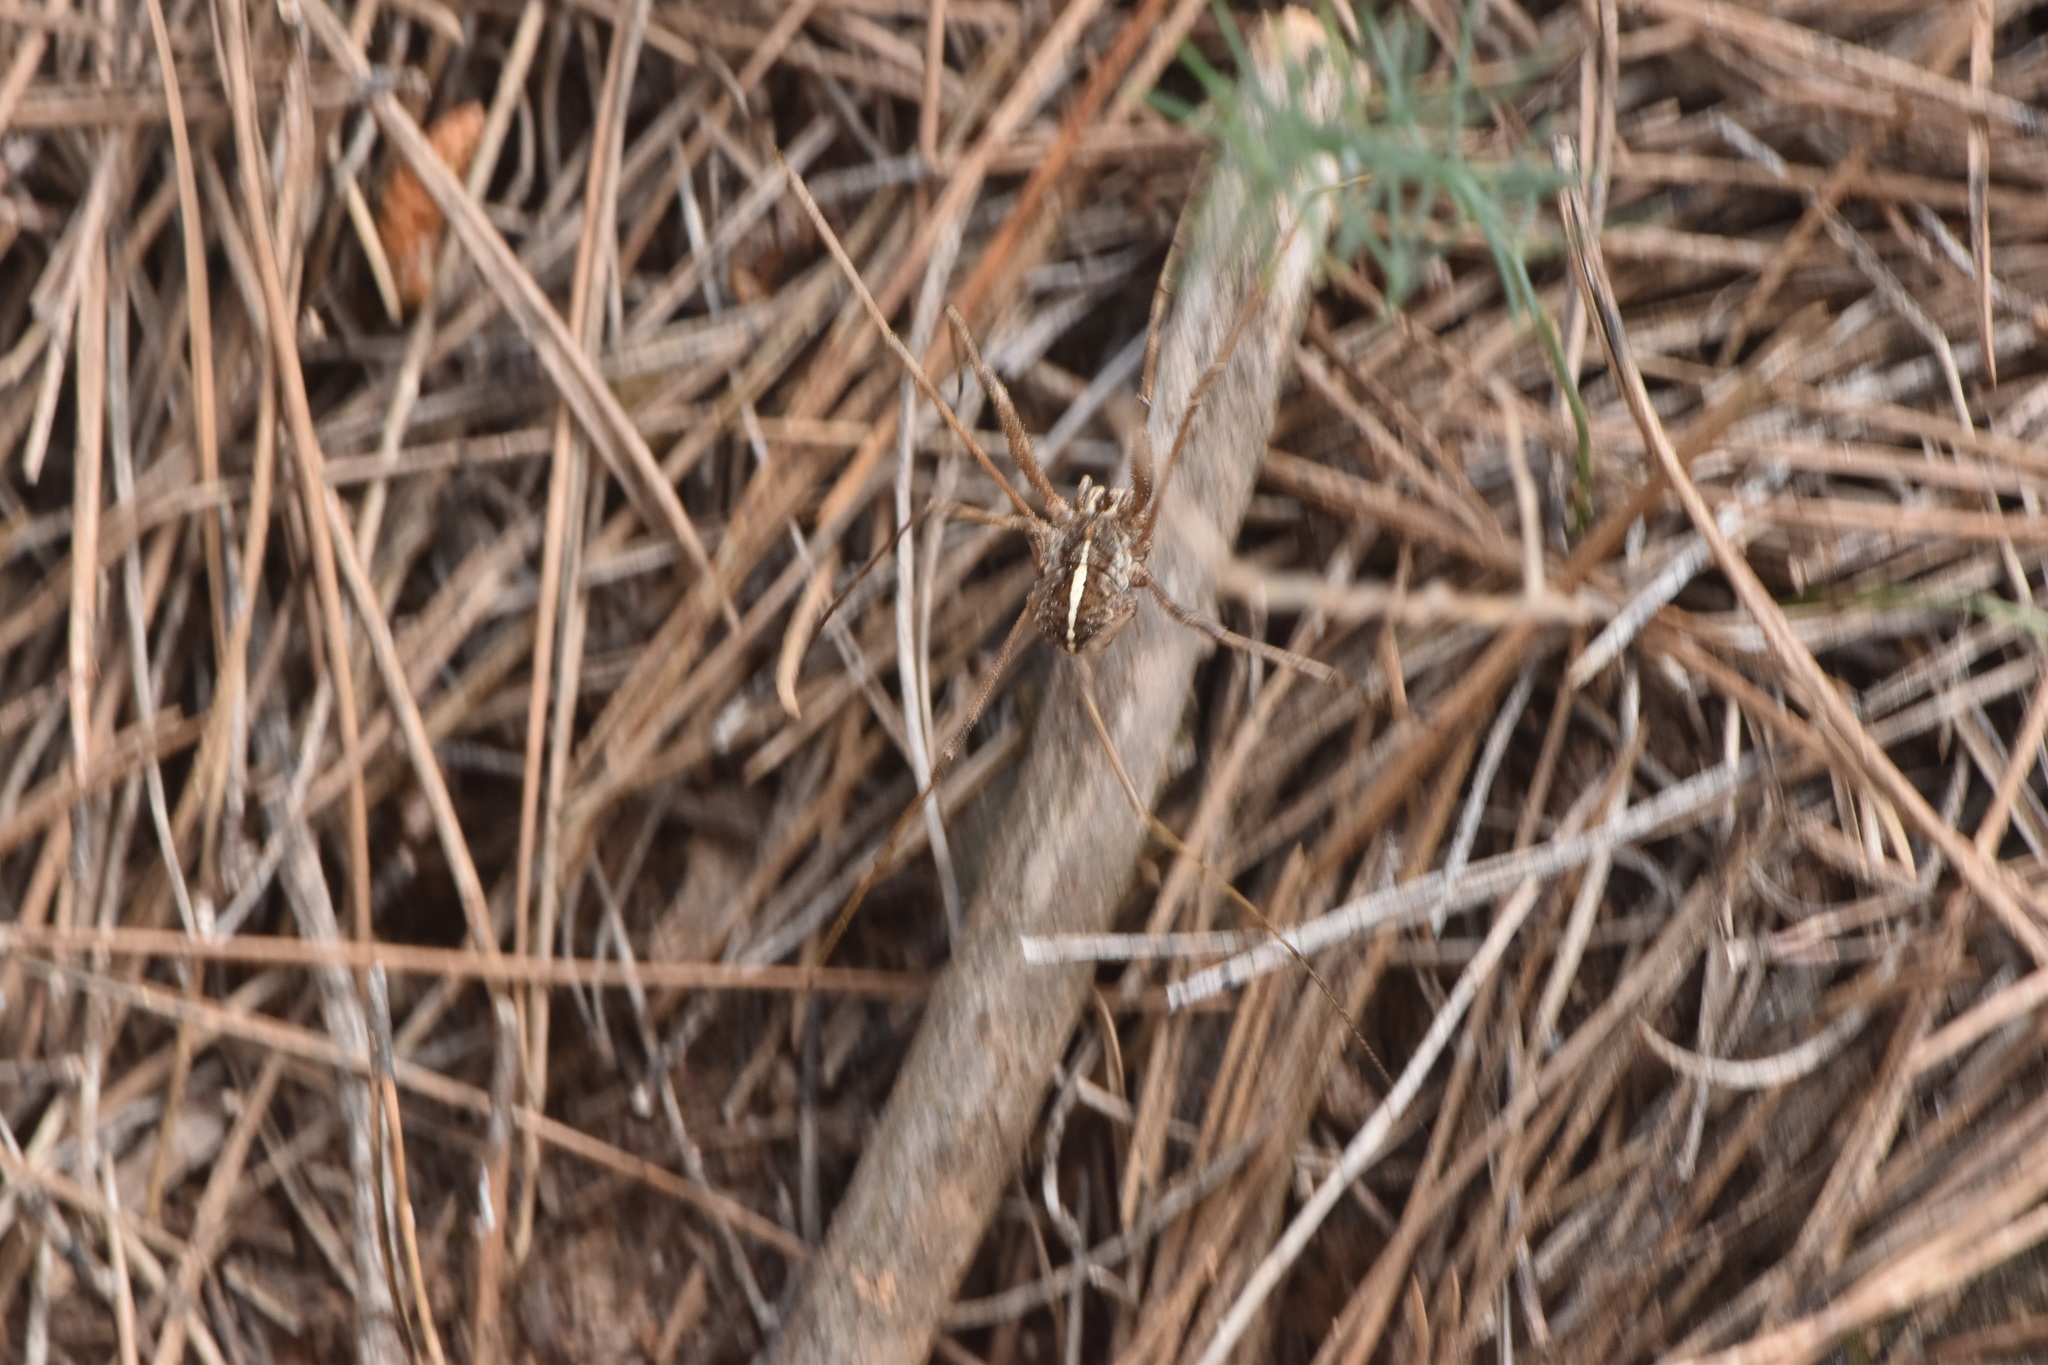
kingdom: Animalia
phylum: Arthropoda
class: Arachnida
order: Opiliones
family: Phalangiidae
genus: Metaphalangium
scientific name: Metaphalangium cirtanum
